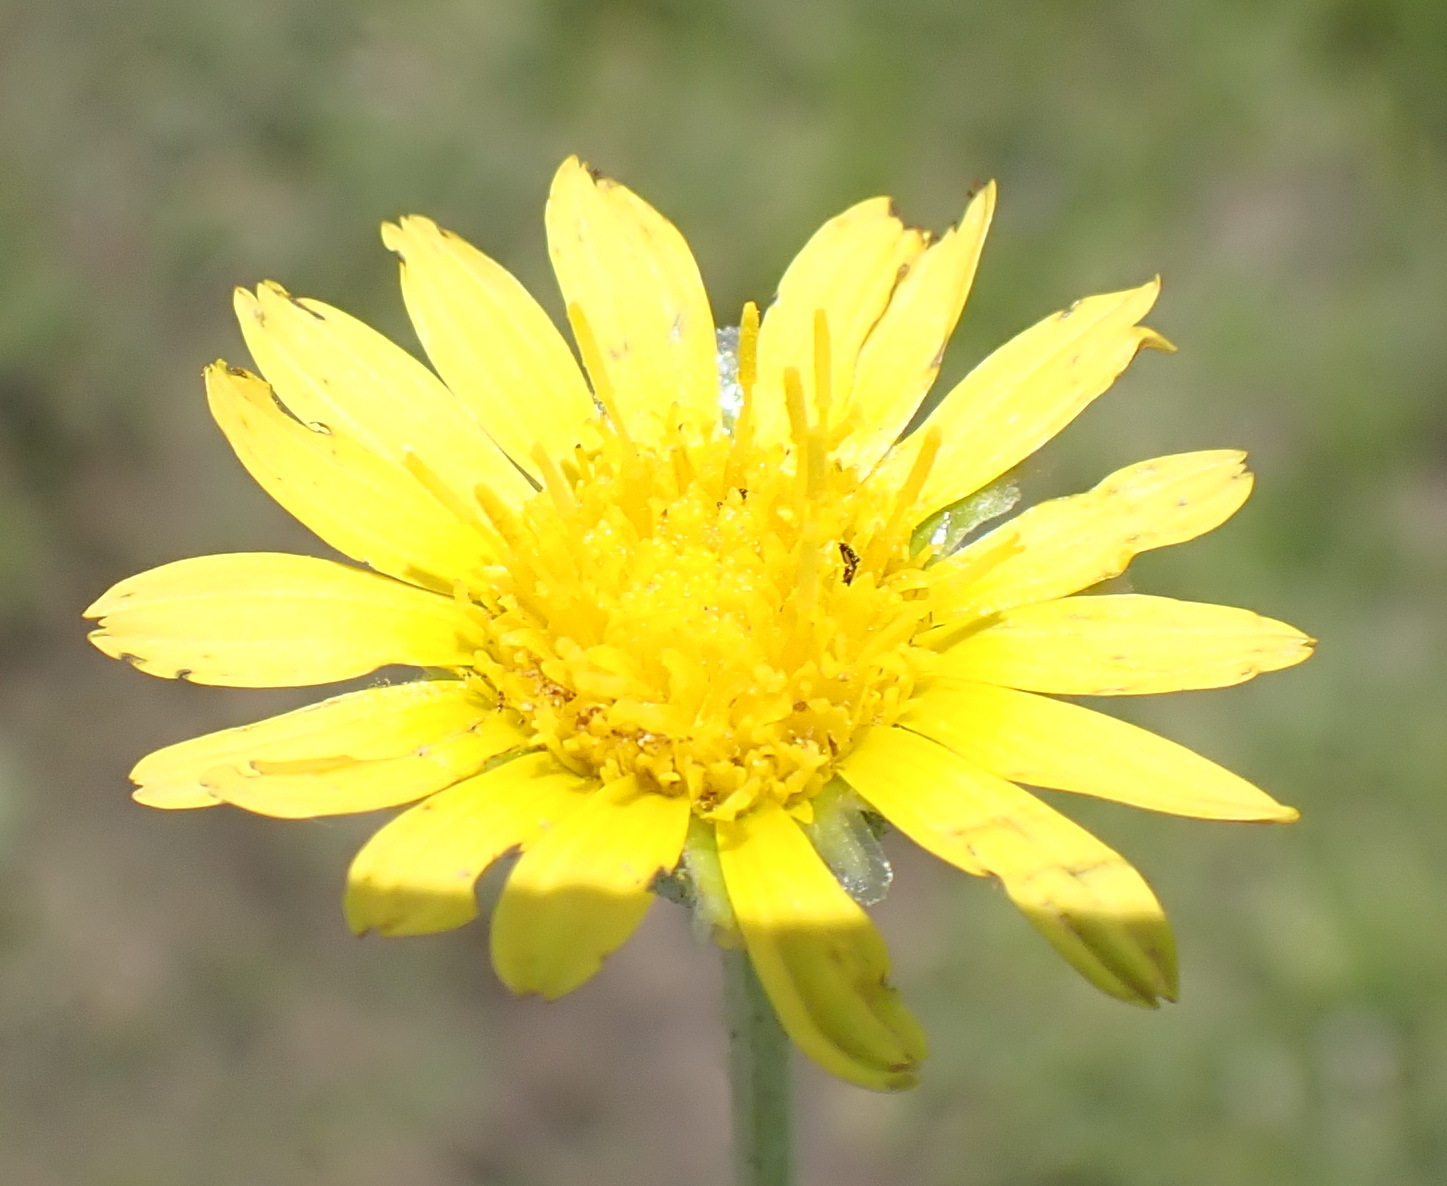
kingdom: Plantae
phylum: Tracheophyta
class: Magnoliopsida
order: Asterales
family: Asteraceae
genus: Arctotis
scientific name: Arctotis arctotoides
